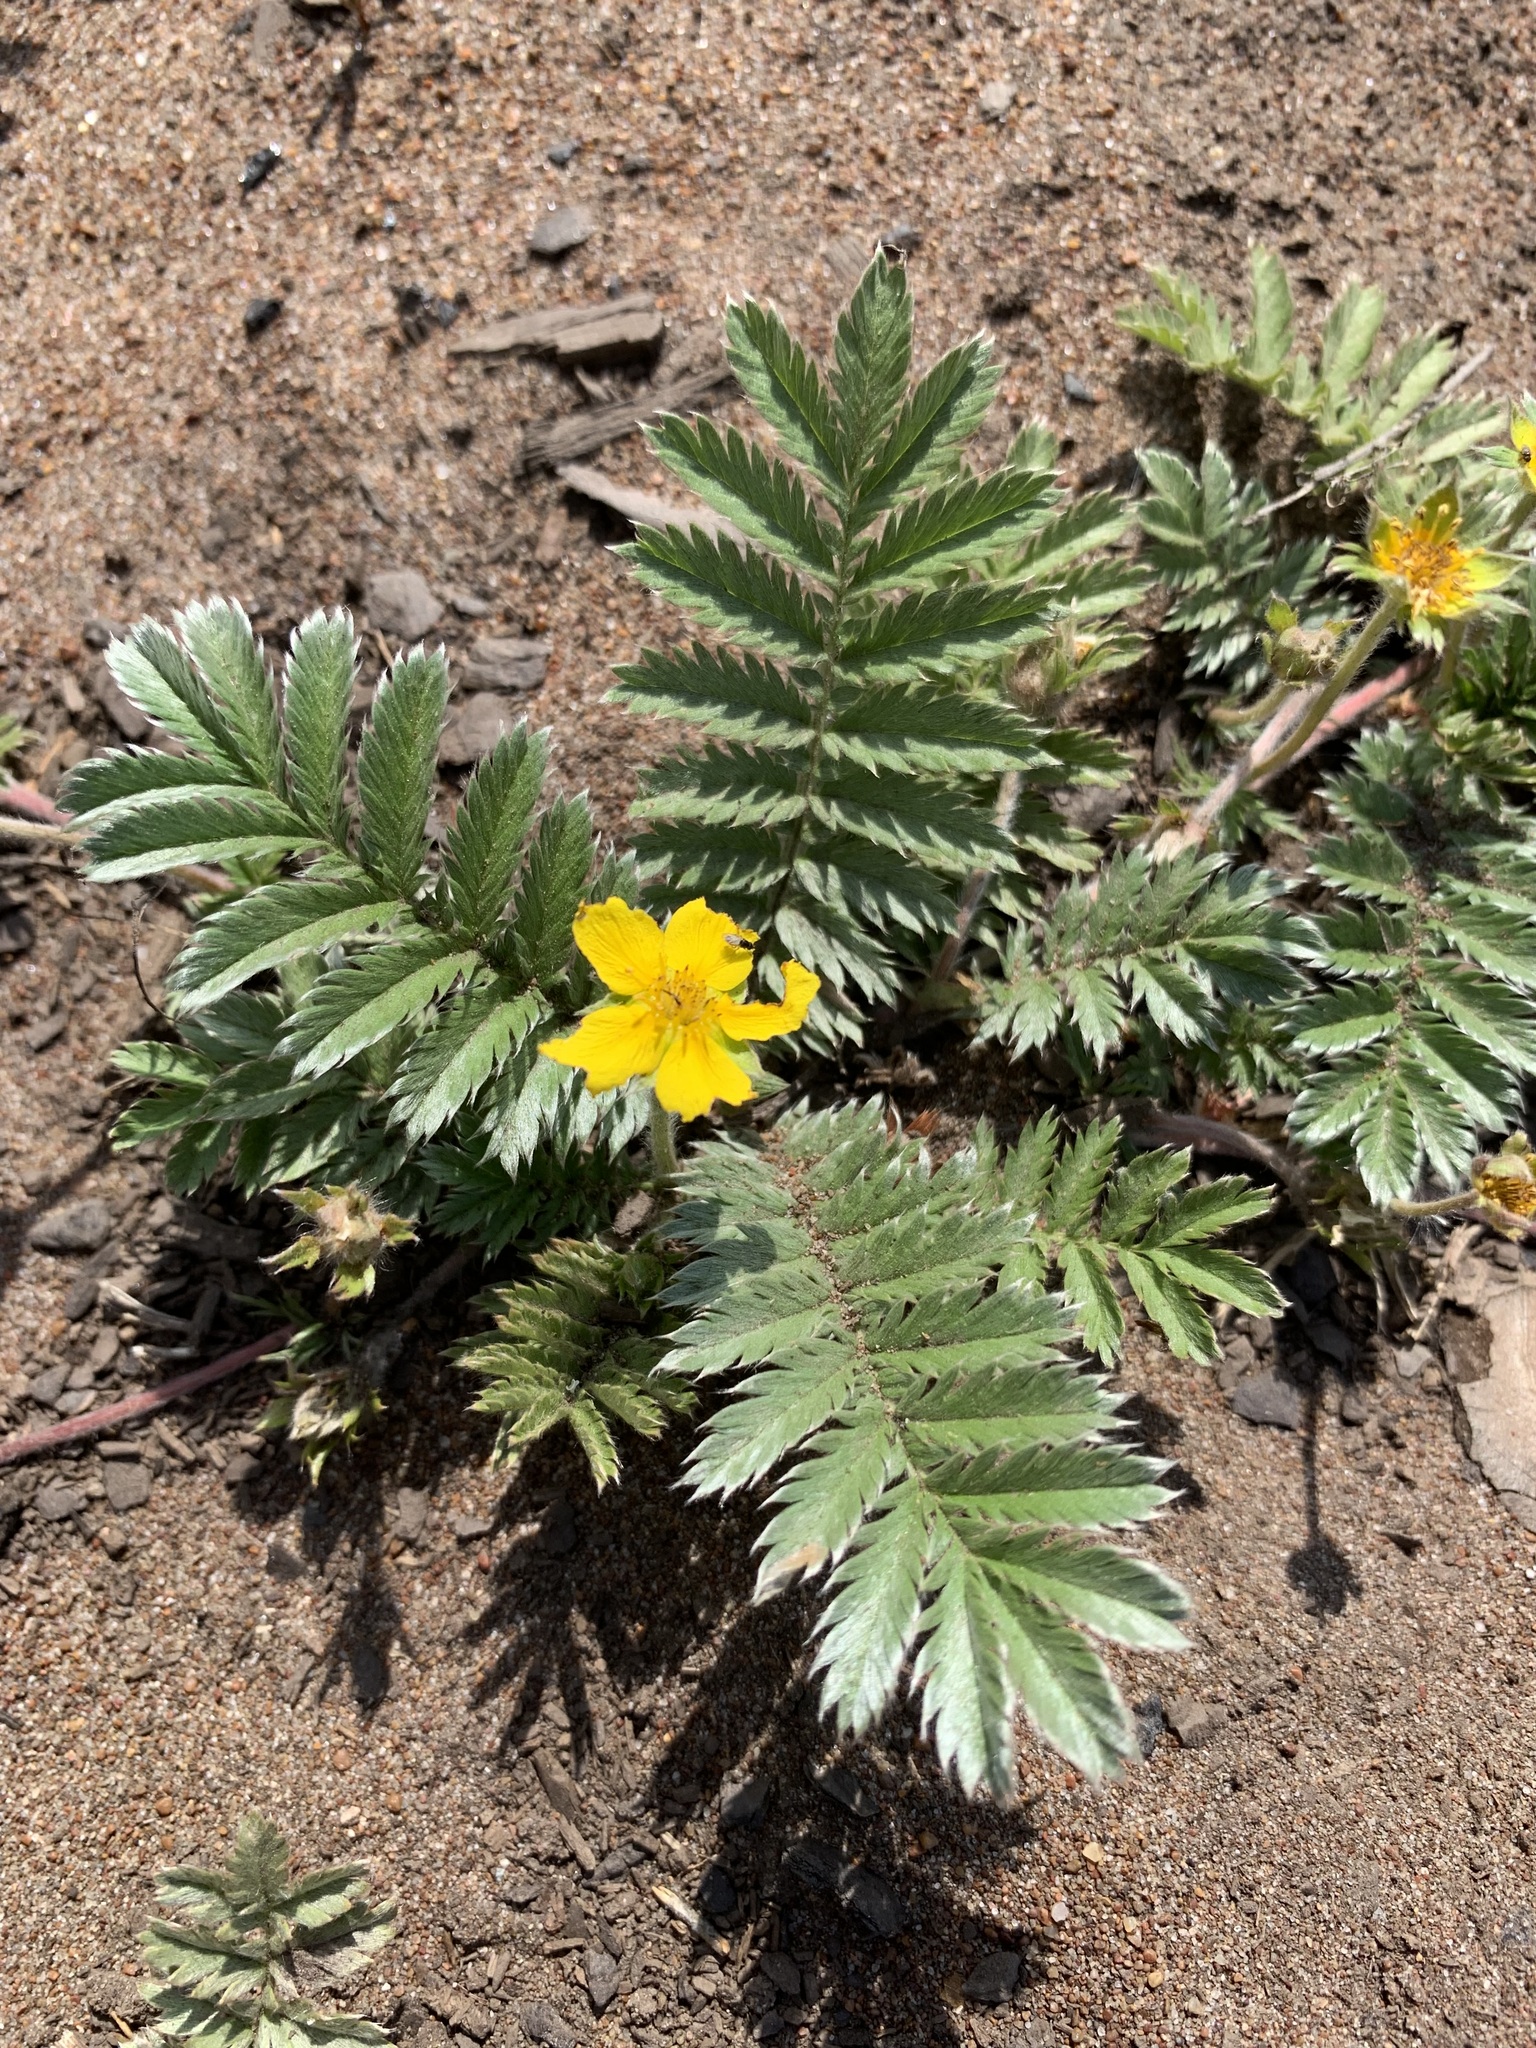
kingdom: Plantae
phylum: Tracheophyta
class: Magnoliopsida
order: Rosales
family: Rosaceae
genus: Argentina
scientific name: Argentina anserina
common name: Common silverweed
